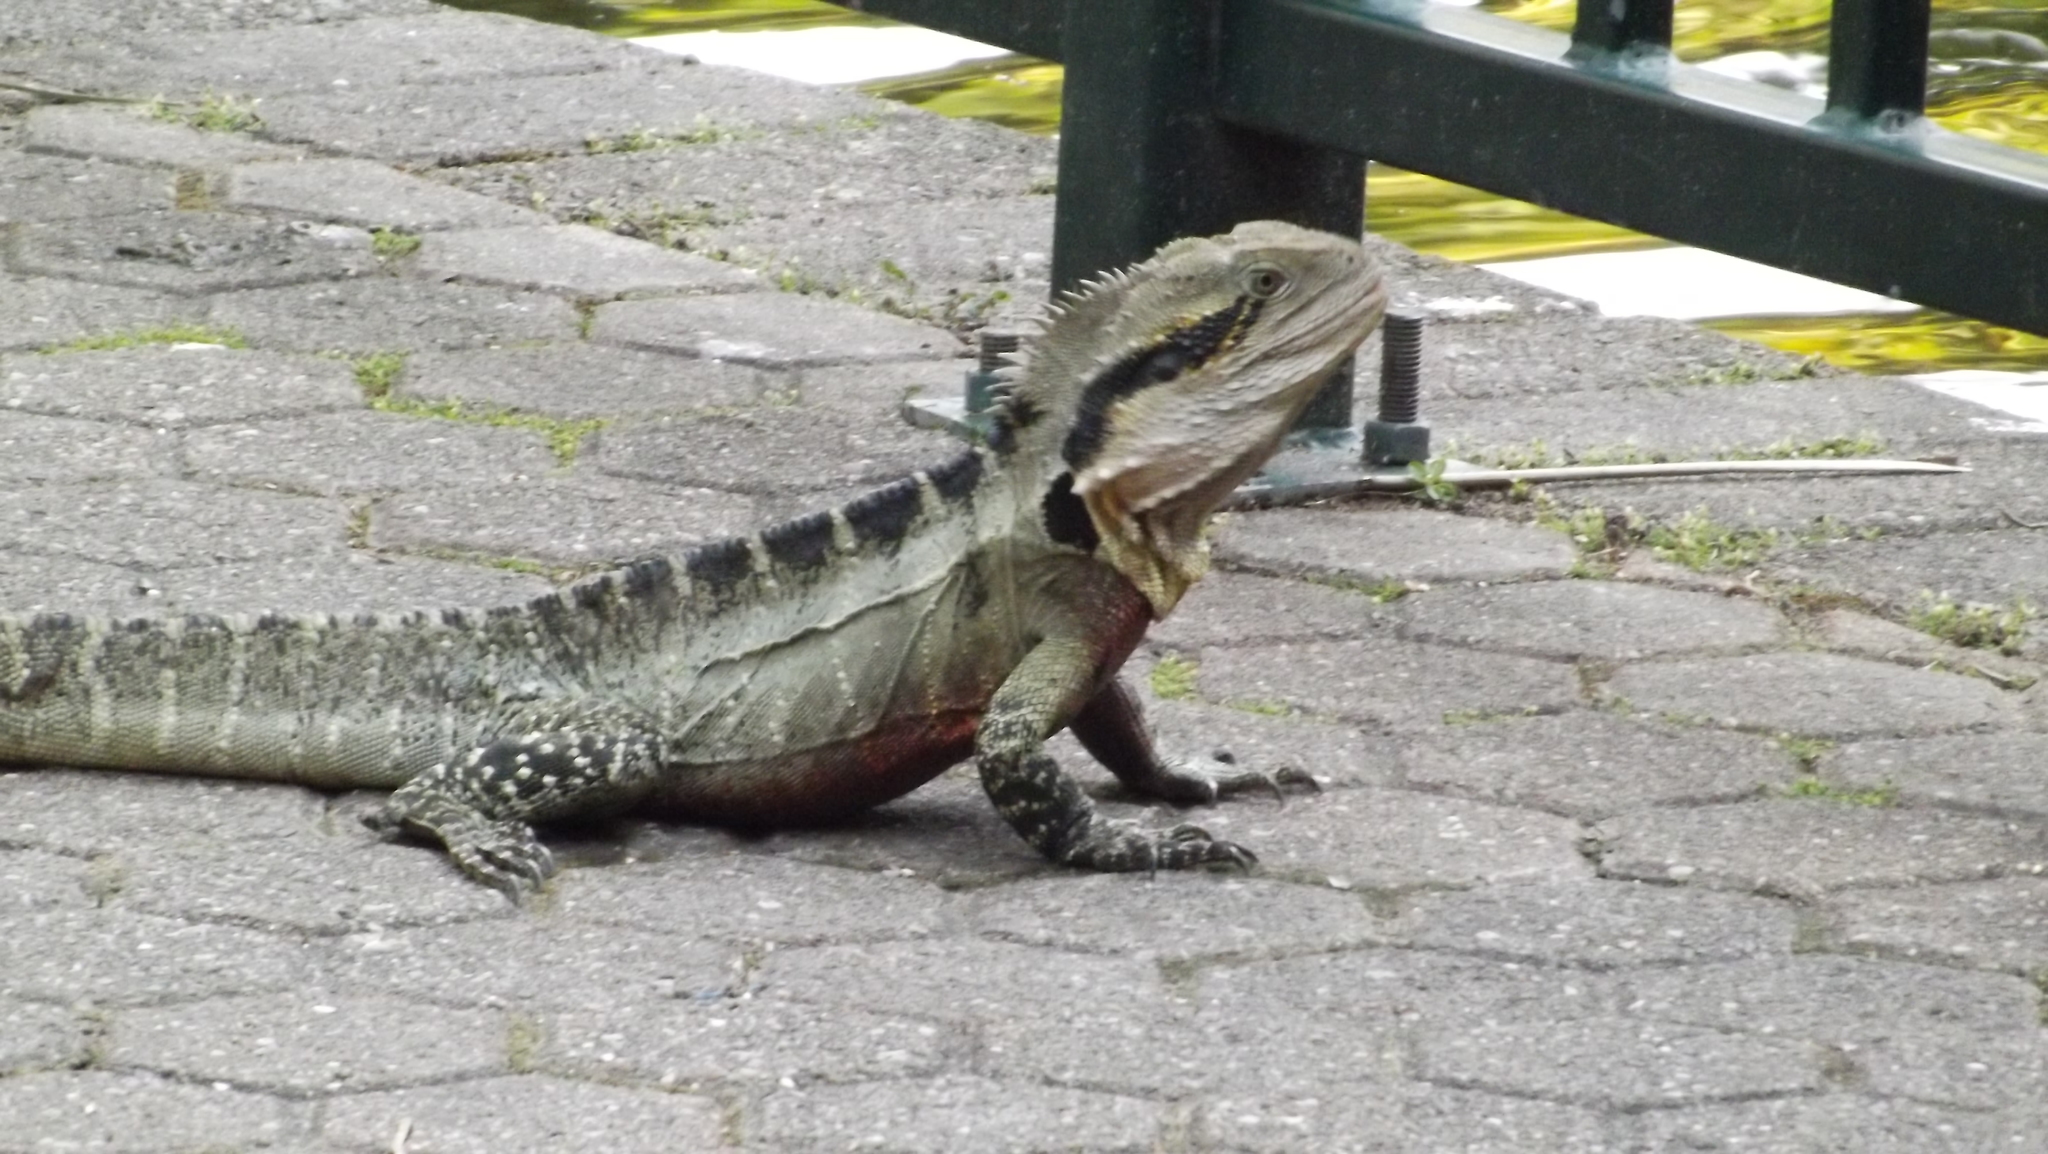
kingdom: Animalia
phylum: Chordata
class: Squamata
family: Agamidae
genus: Intellagama
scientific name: Intellagama lesueurii
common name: Eastern water dragon
